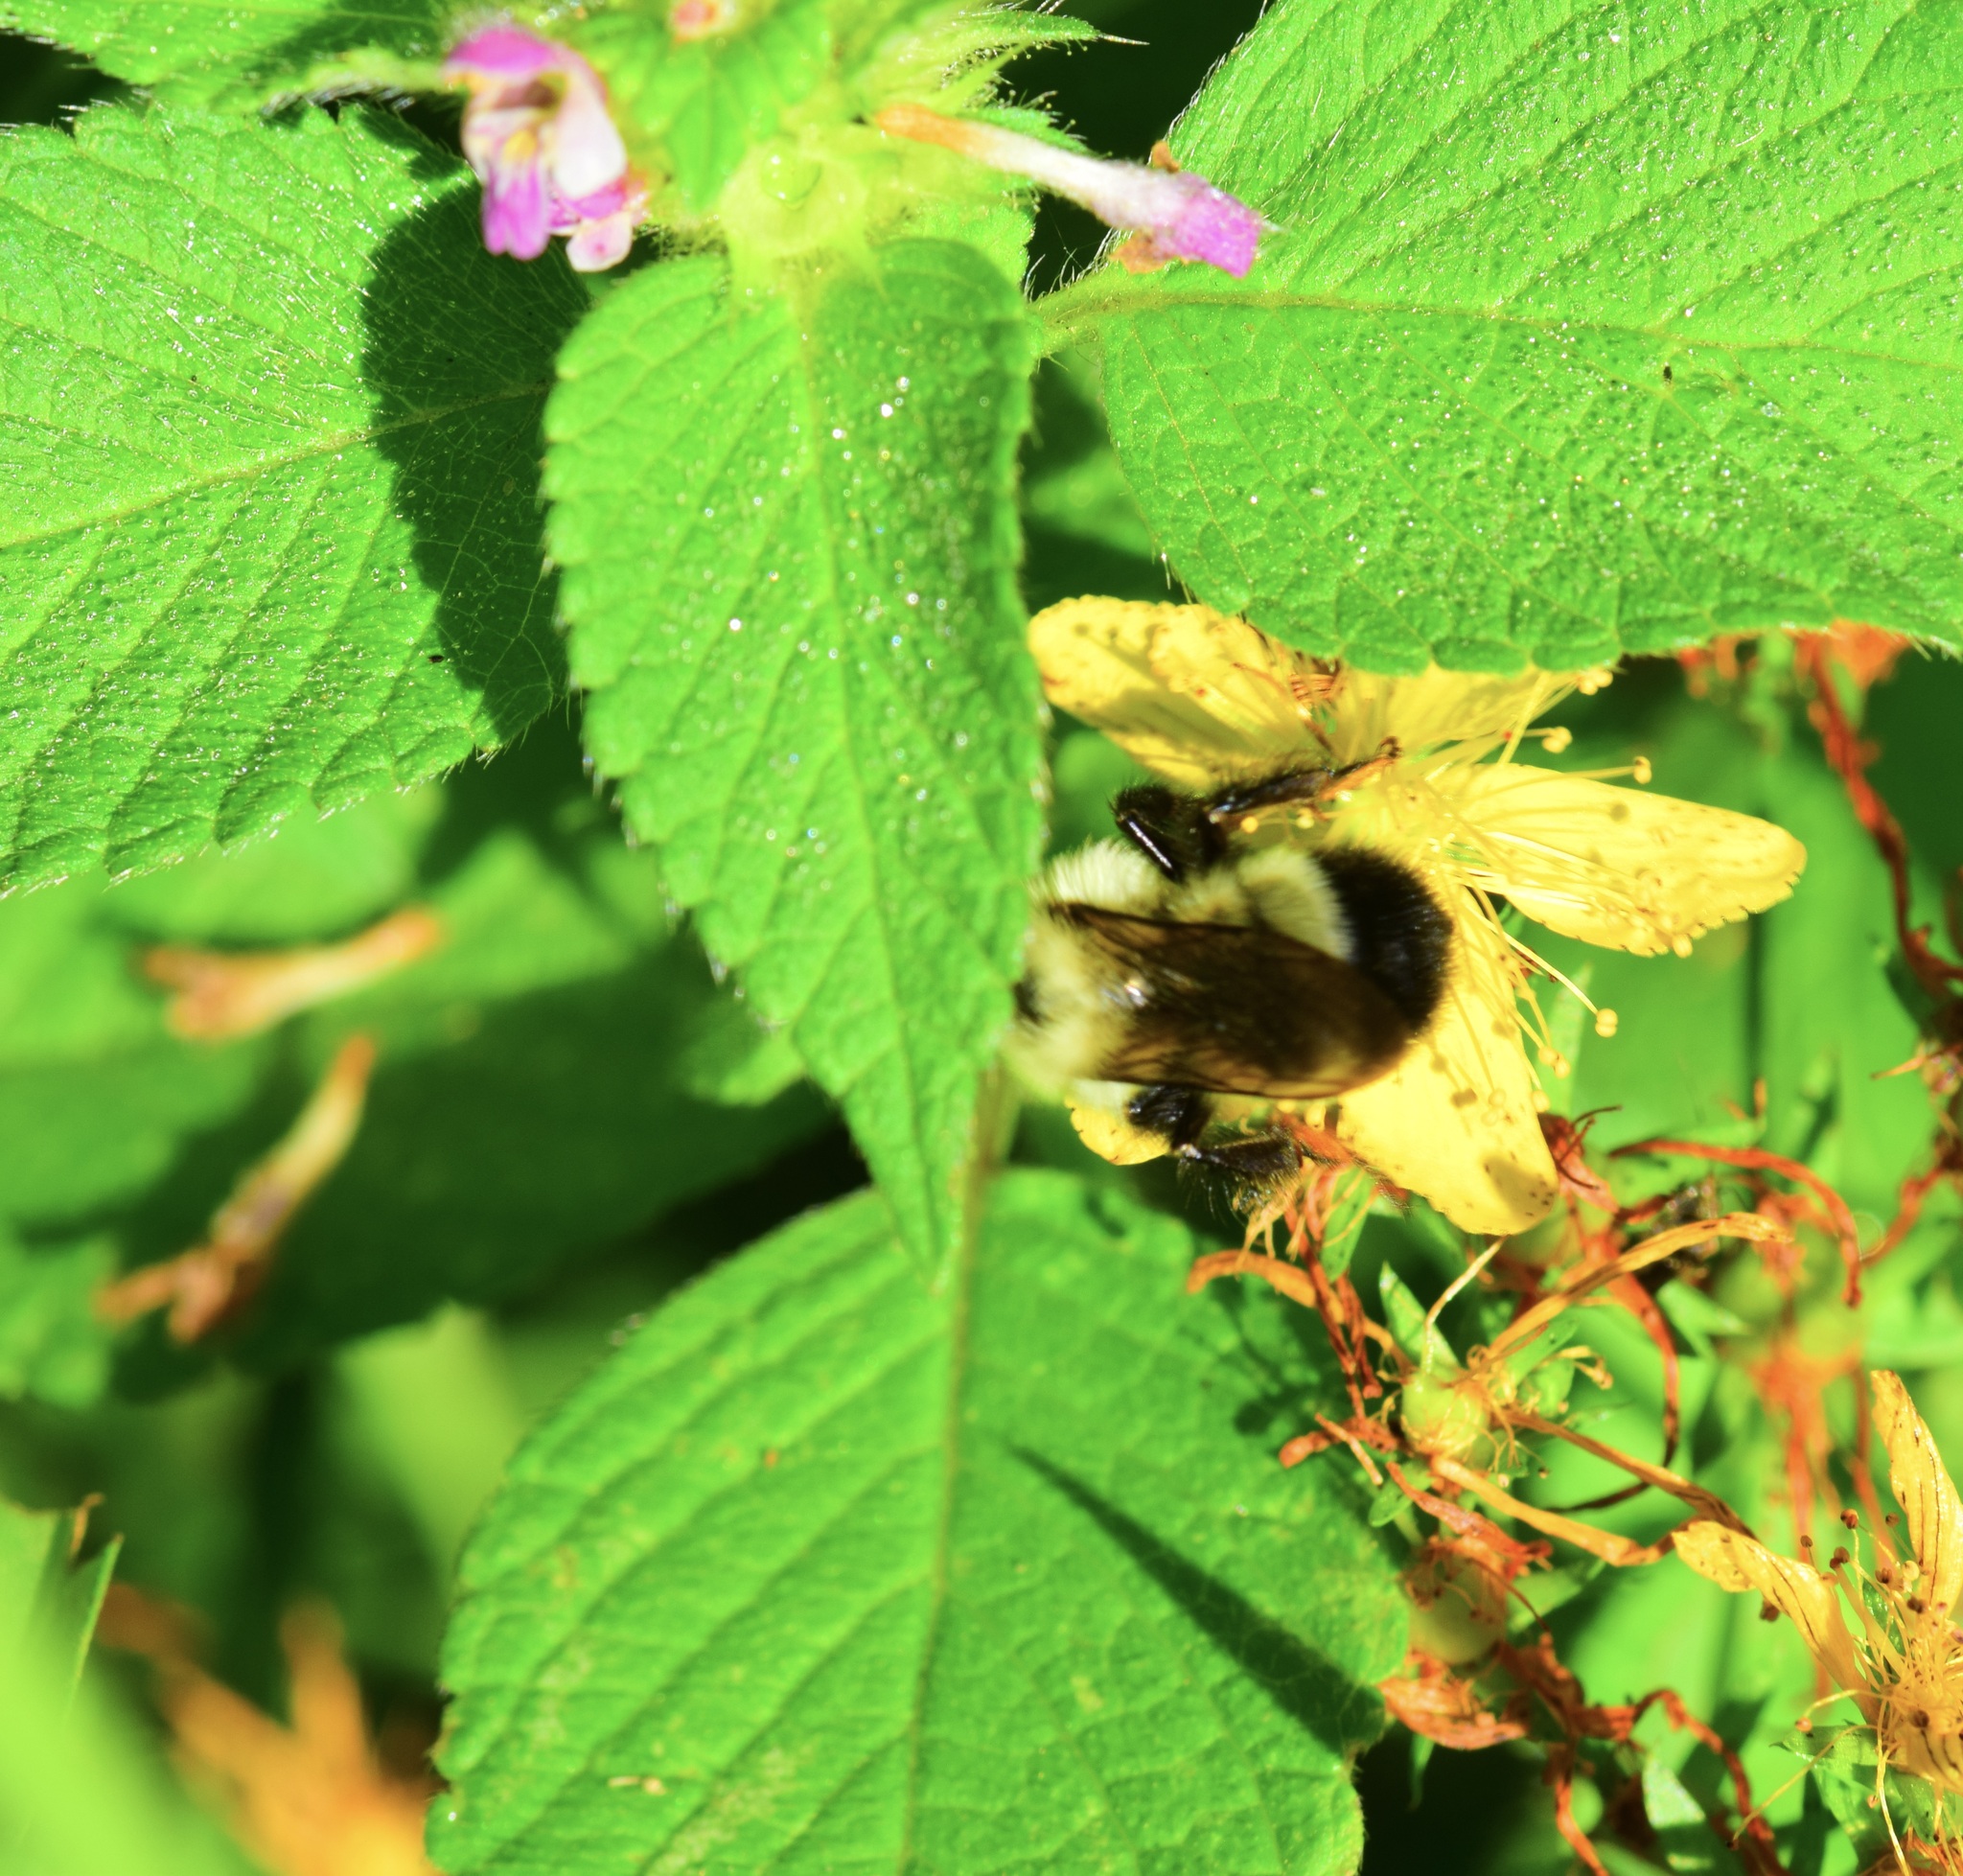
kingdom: Animalia
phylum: Arthropoda
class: Insecta
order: Hymenoptera
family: Apidae
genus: Pyrobombus
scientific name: Pyrobombus
